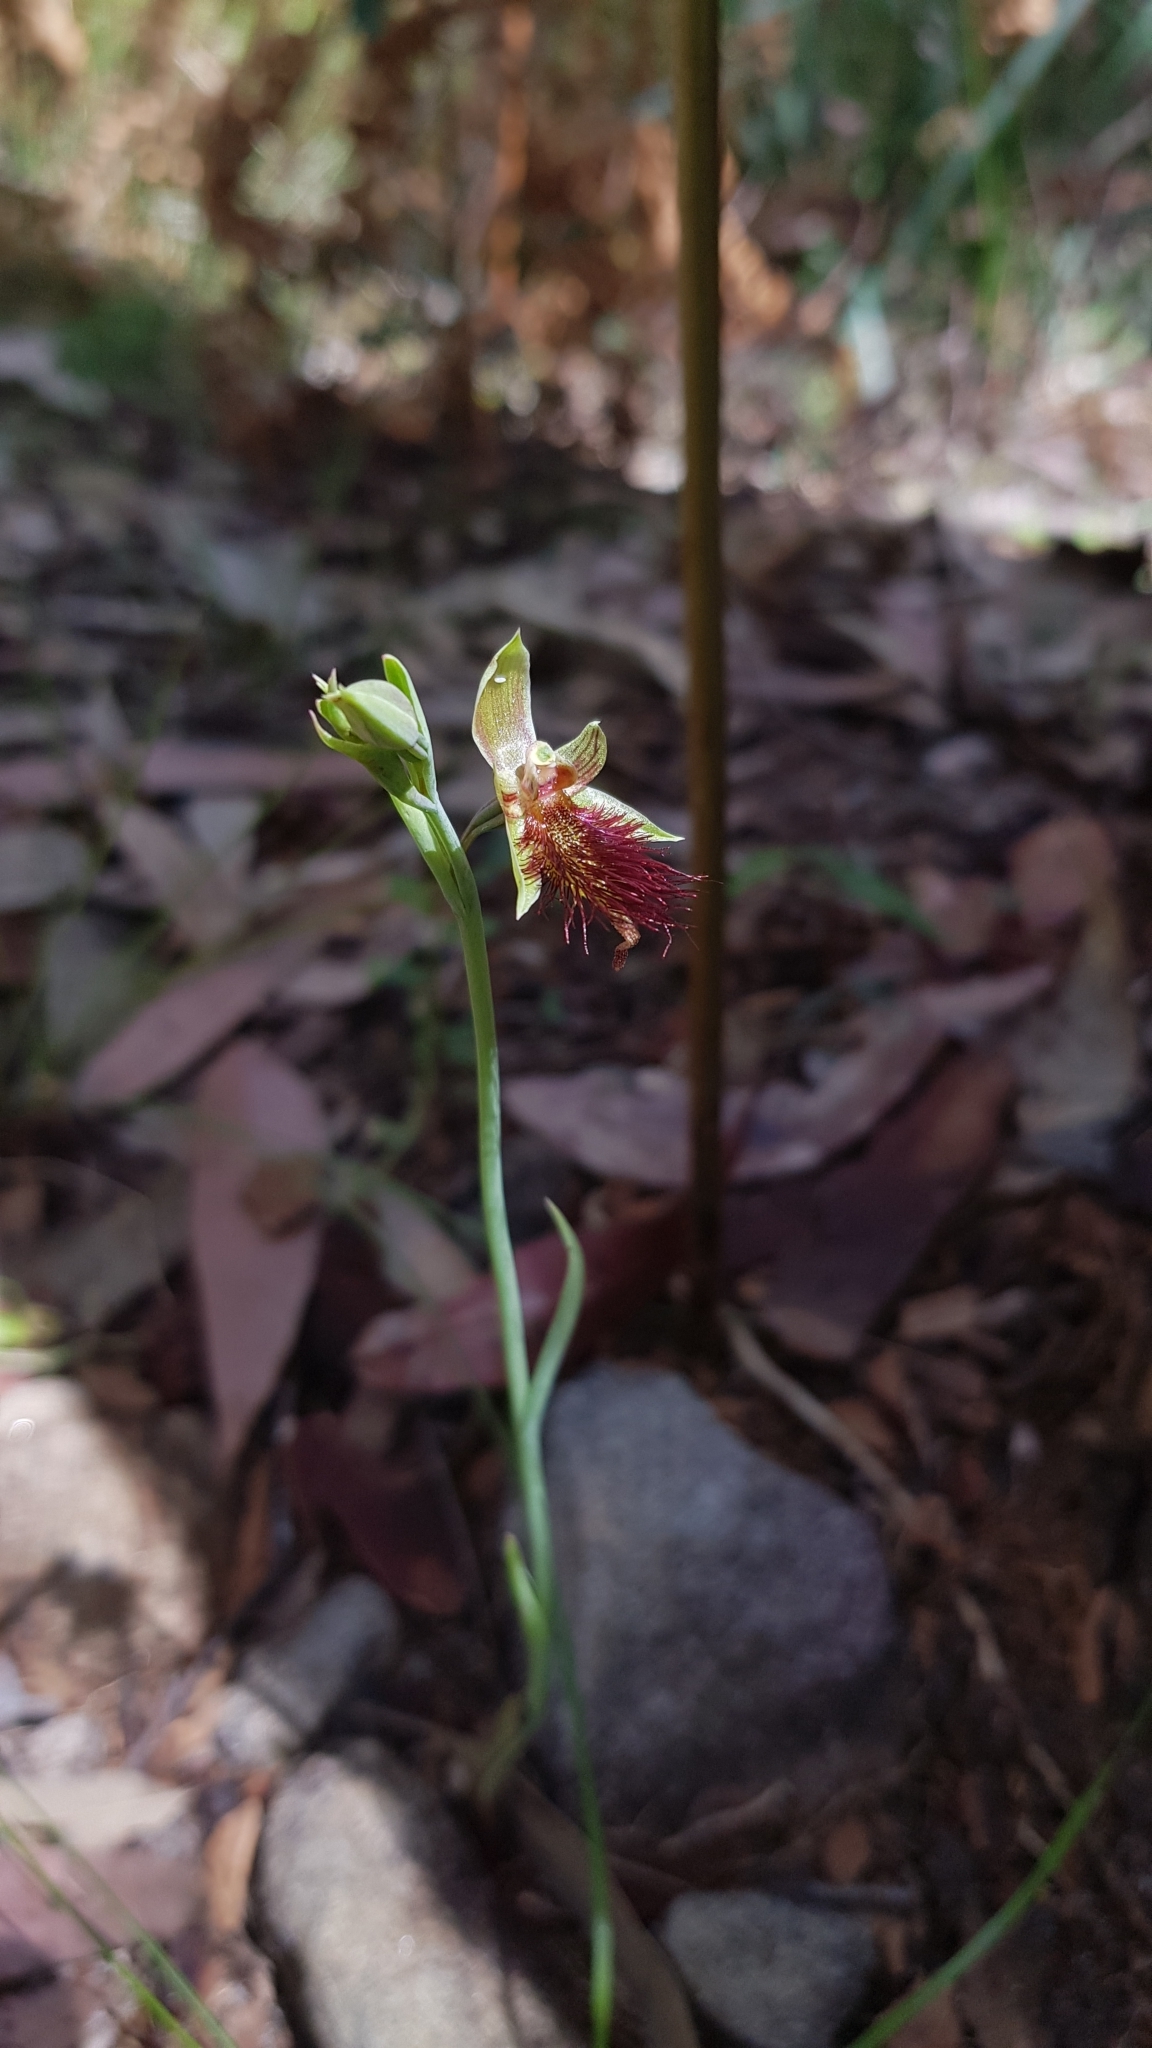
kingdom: Plantae
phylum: Tracheophyta
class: Liliopsida
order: Asparagales
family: Orchidaceae
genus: Calochilus
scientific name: Calochilus paludosus
